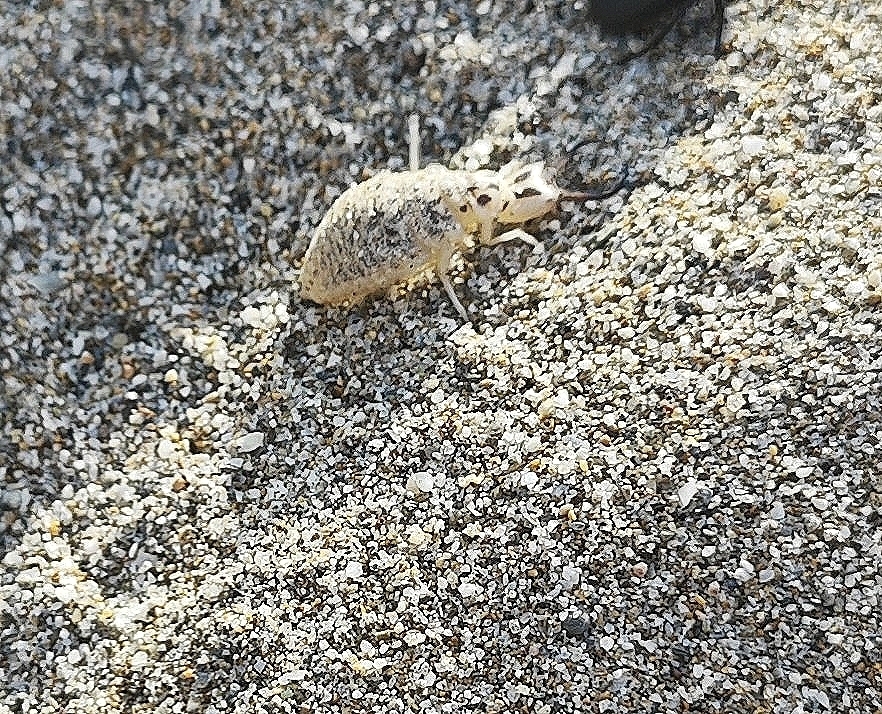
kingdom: Animalia
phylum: Arthropoda
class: Insecta
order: Neuroptera
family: Myrmeleontidae
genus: Synclisis
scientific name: Synclisis baetica
